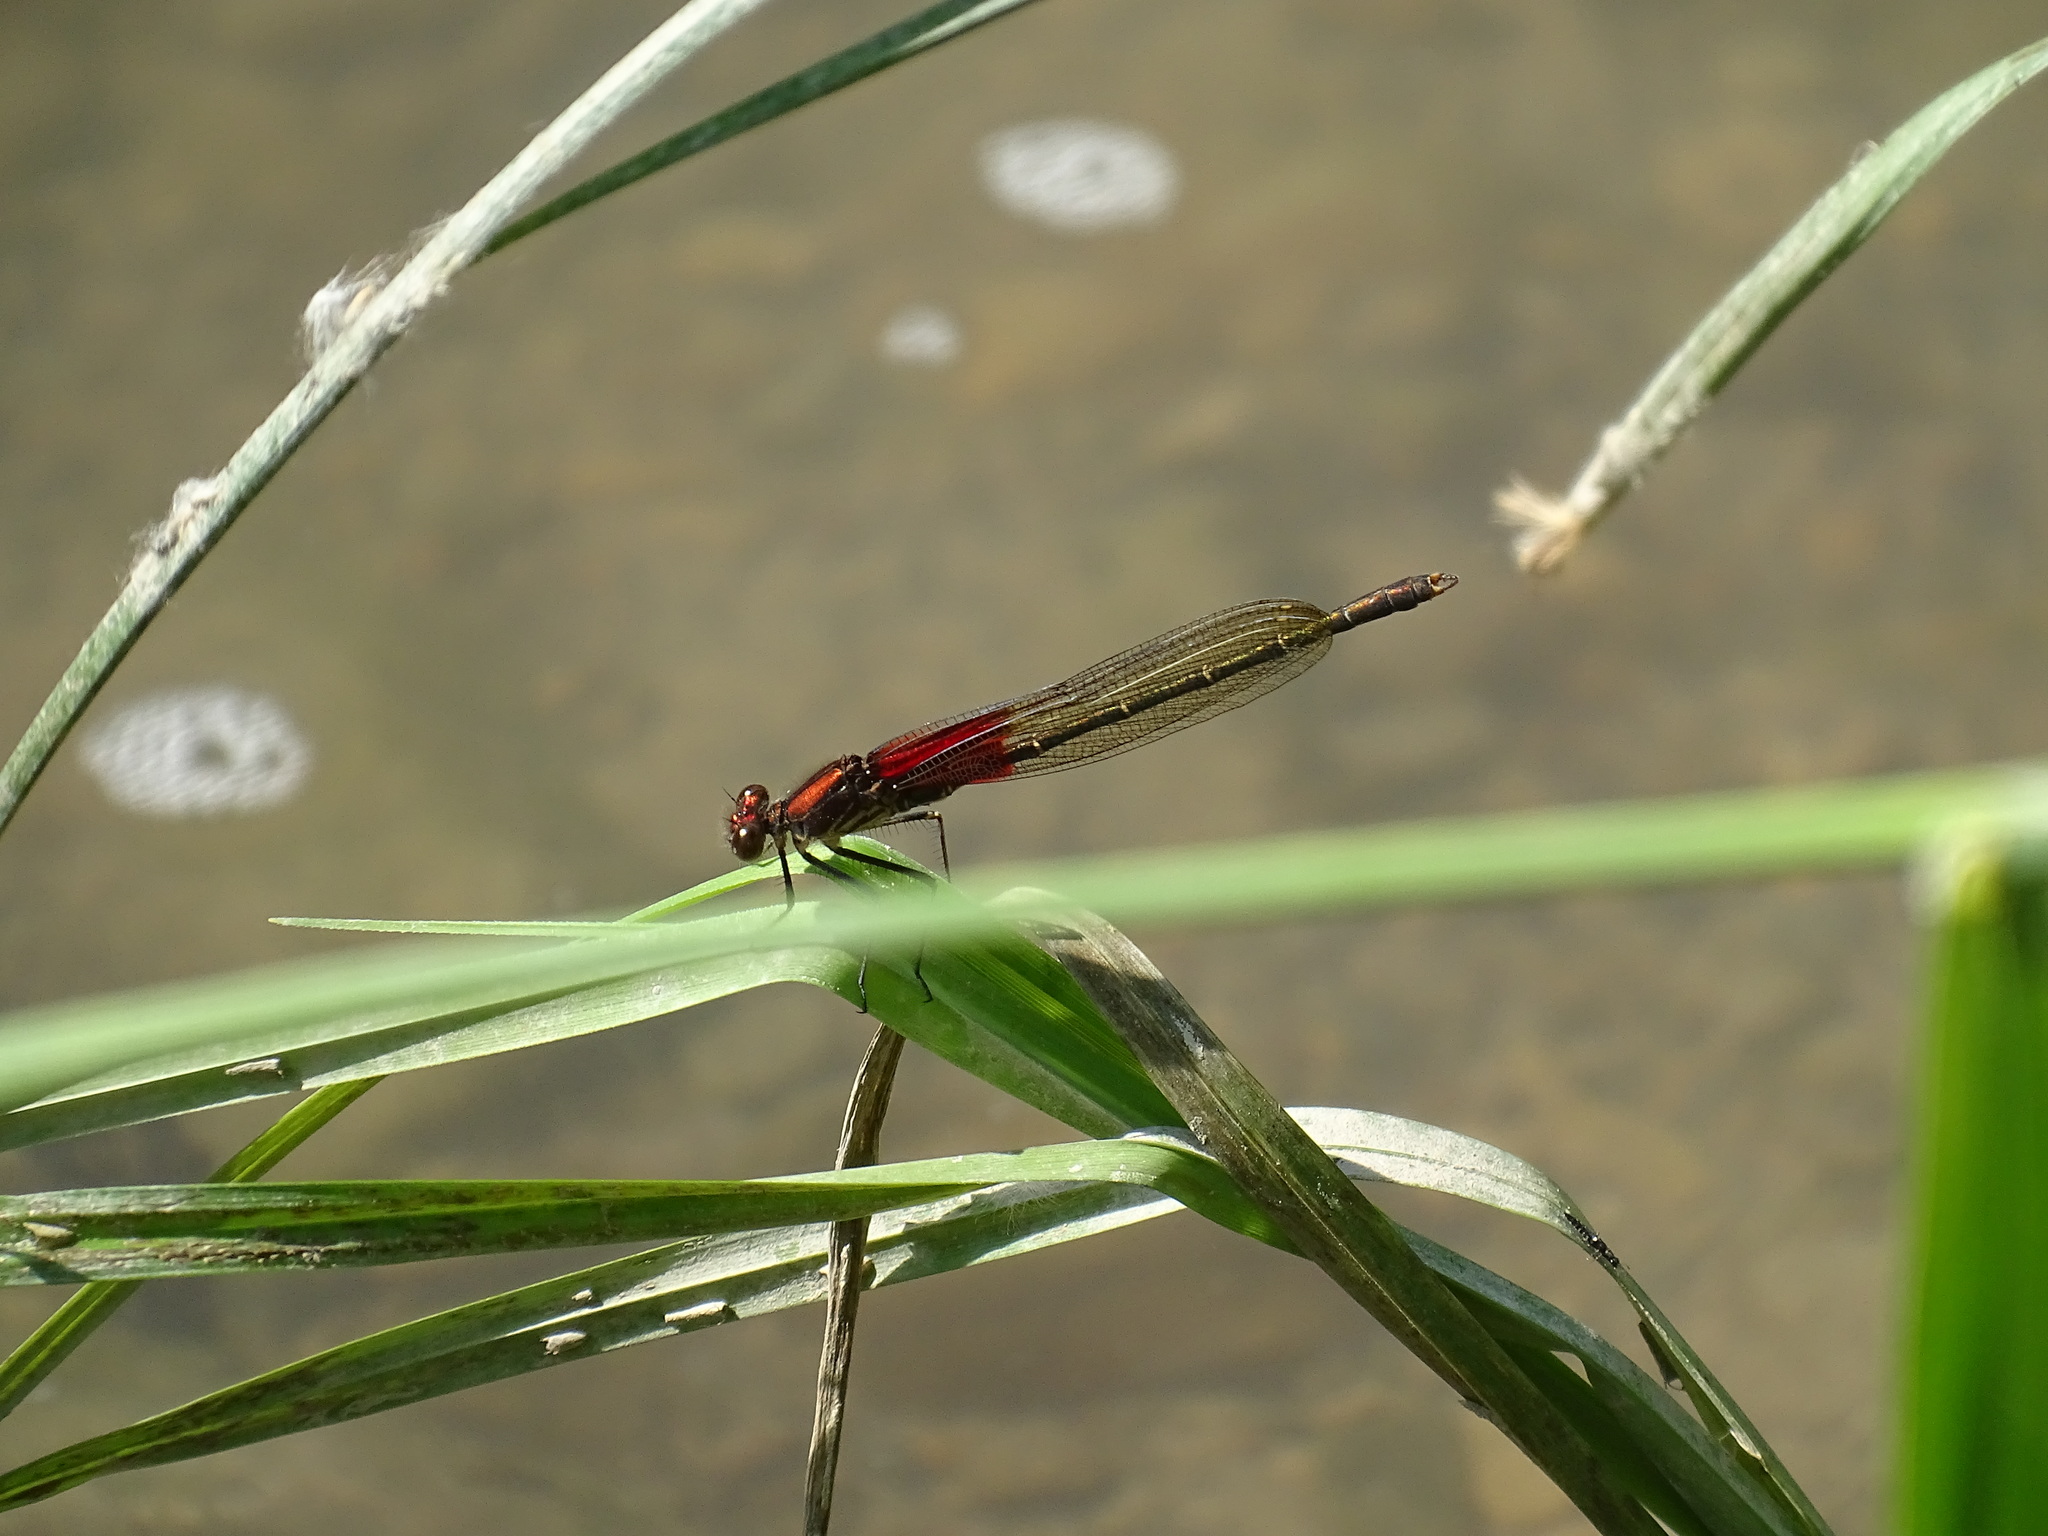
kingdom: Animalia
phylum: Arthropoda
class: Insecta
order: Odonata
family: Calopterygidae
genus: Hetaerina
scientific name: Hetaerina americana
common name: American rubyspot
